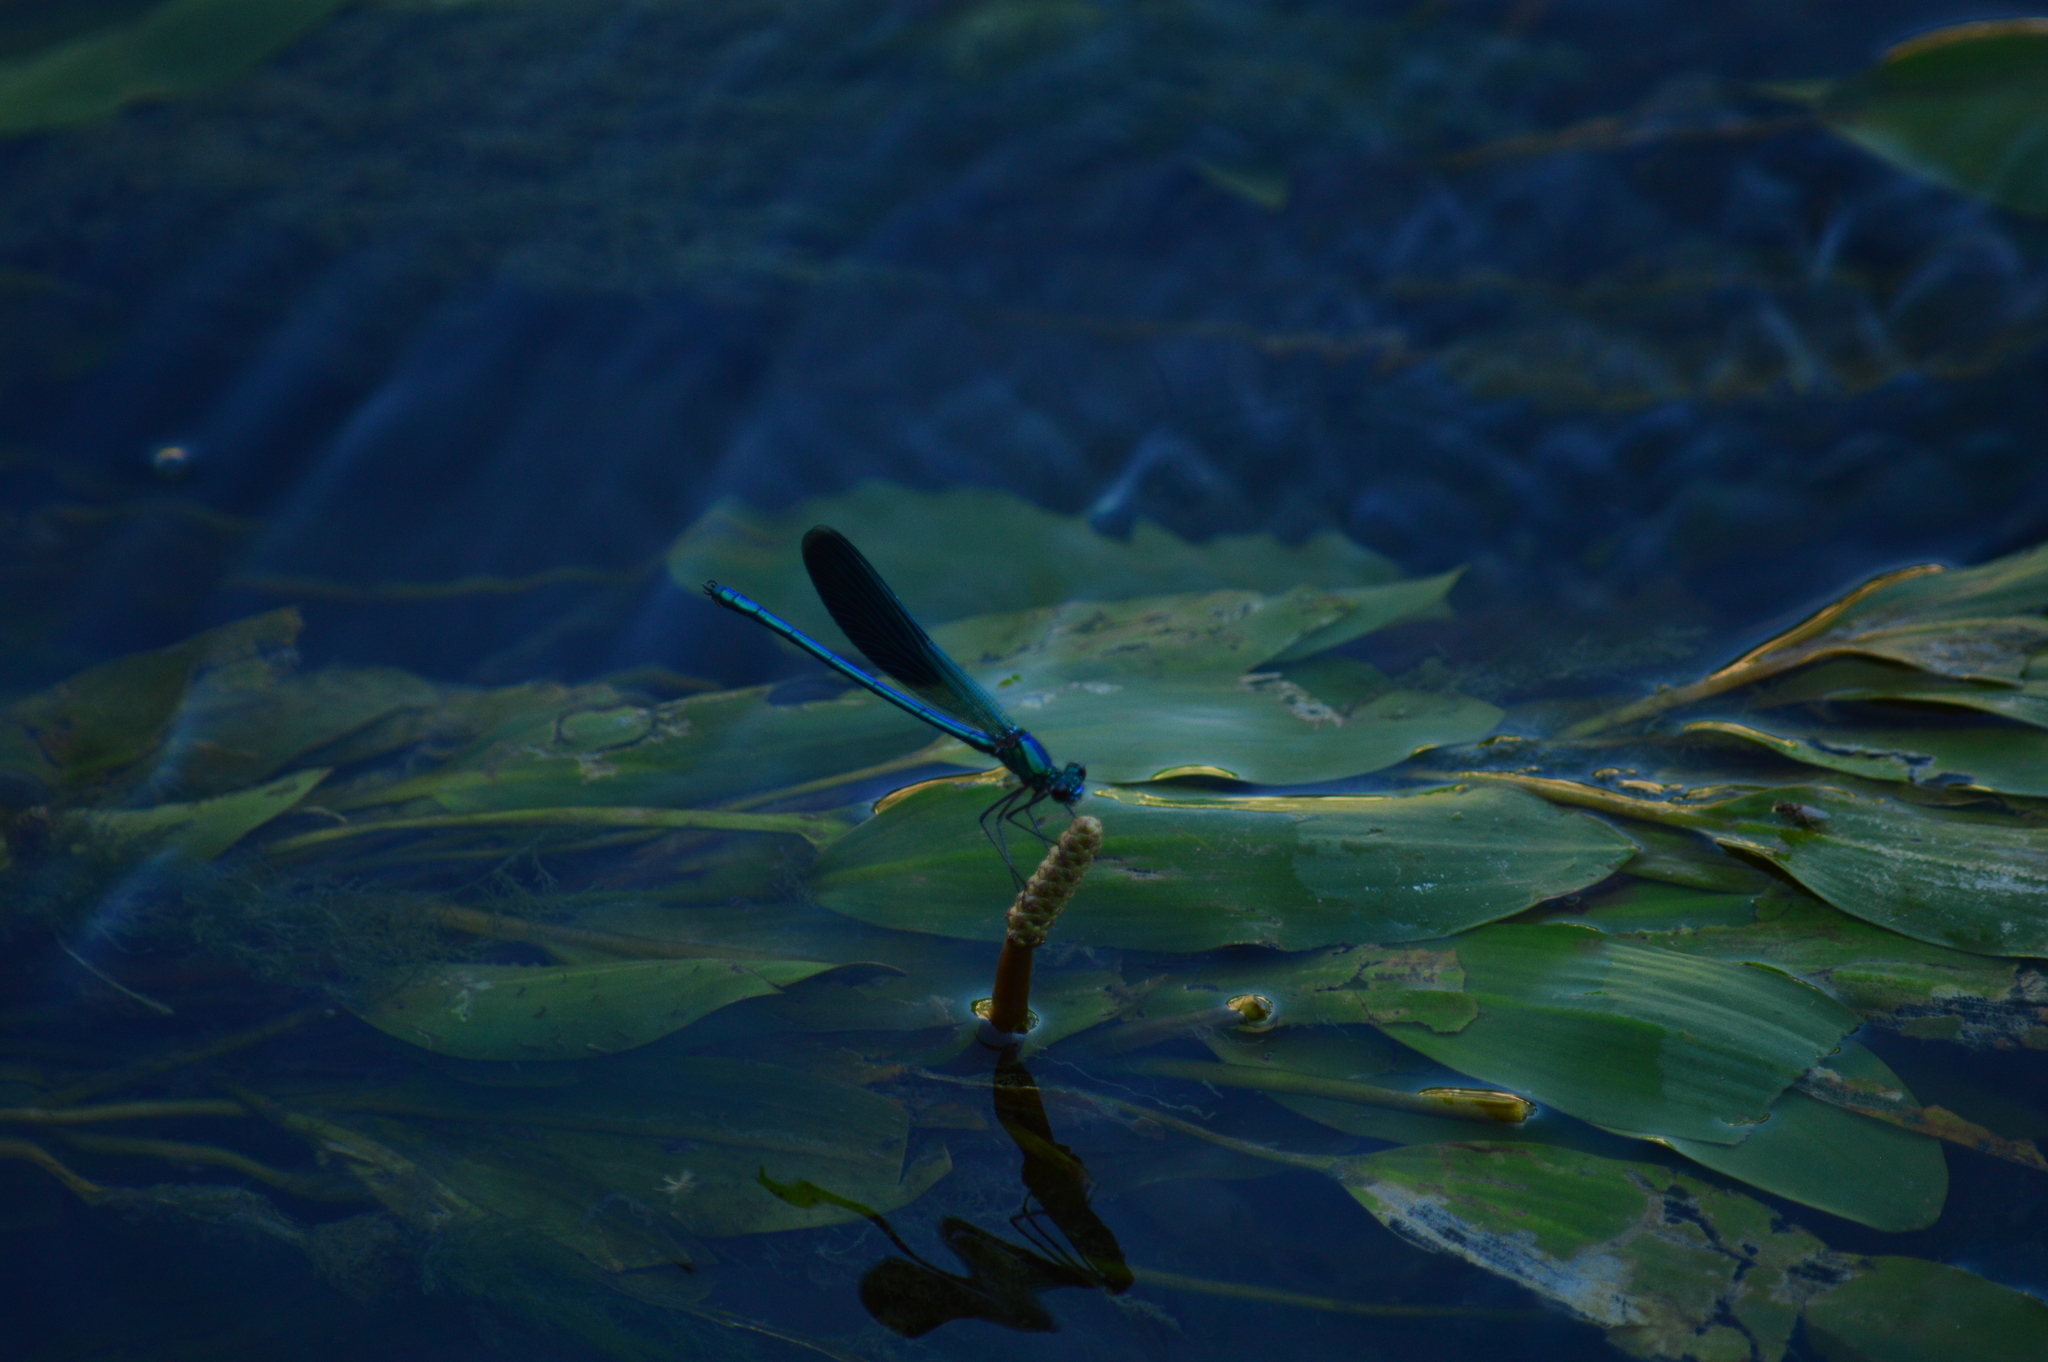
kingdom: Animalia
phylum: Arthropoda
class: Insecta
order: Odonata
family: Calopterygidae
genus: Calopteryx
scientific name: Calopteryx splendens
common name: Banded demoiselle
